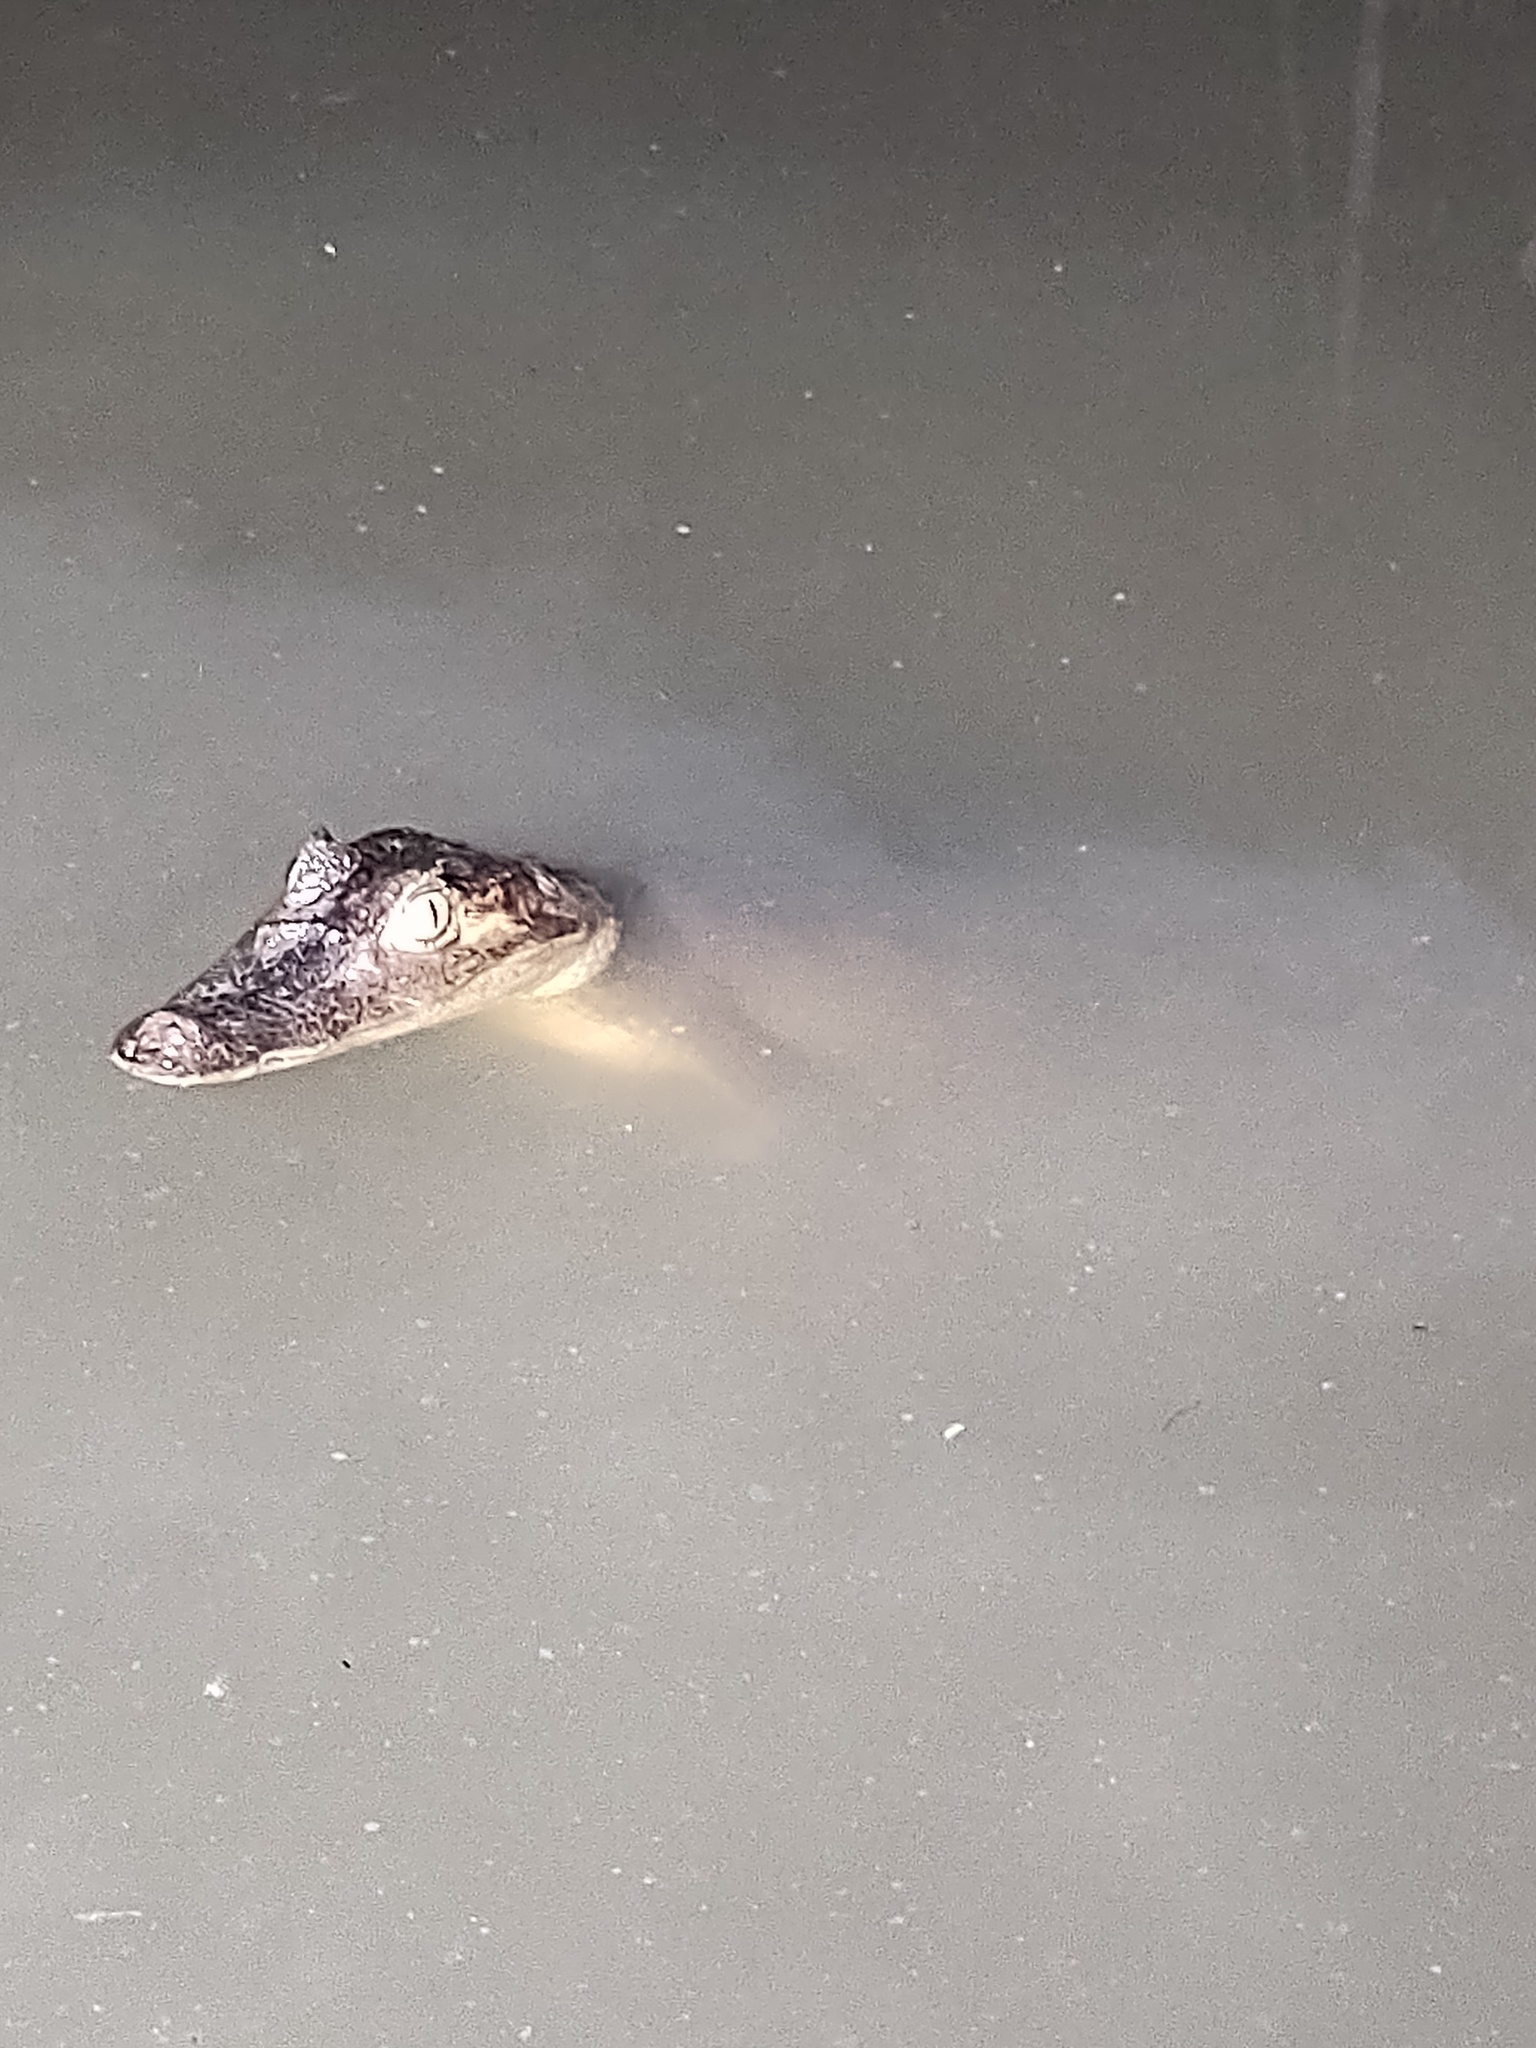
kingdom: Animalia
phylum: Chordata
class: Crocodylia
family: Alligatoridae
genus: Caiman
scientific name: Caiman crocodilus
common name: Common caiman
